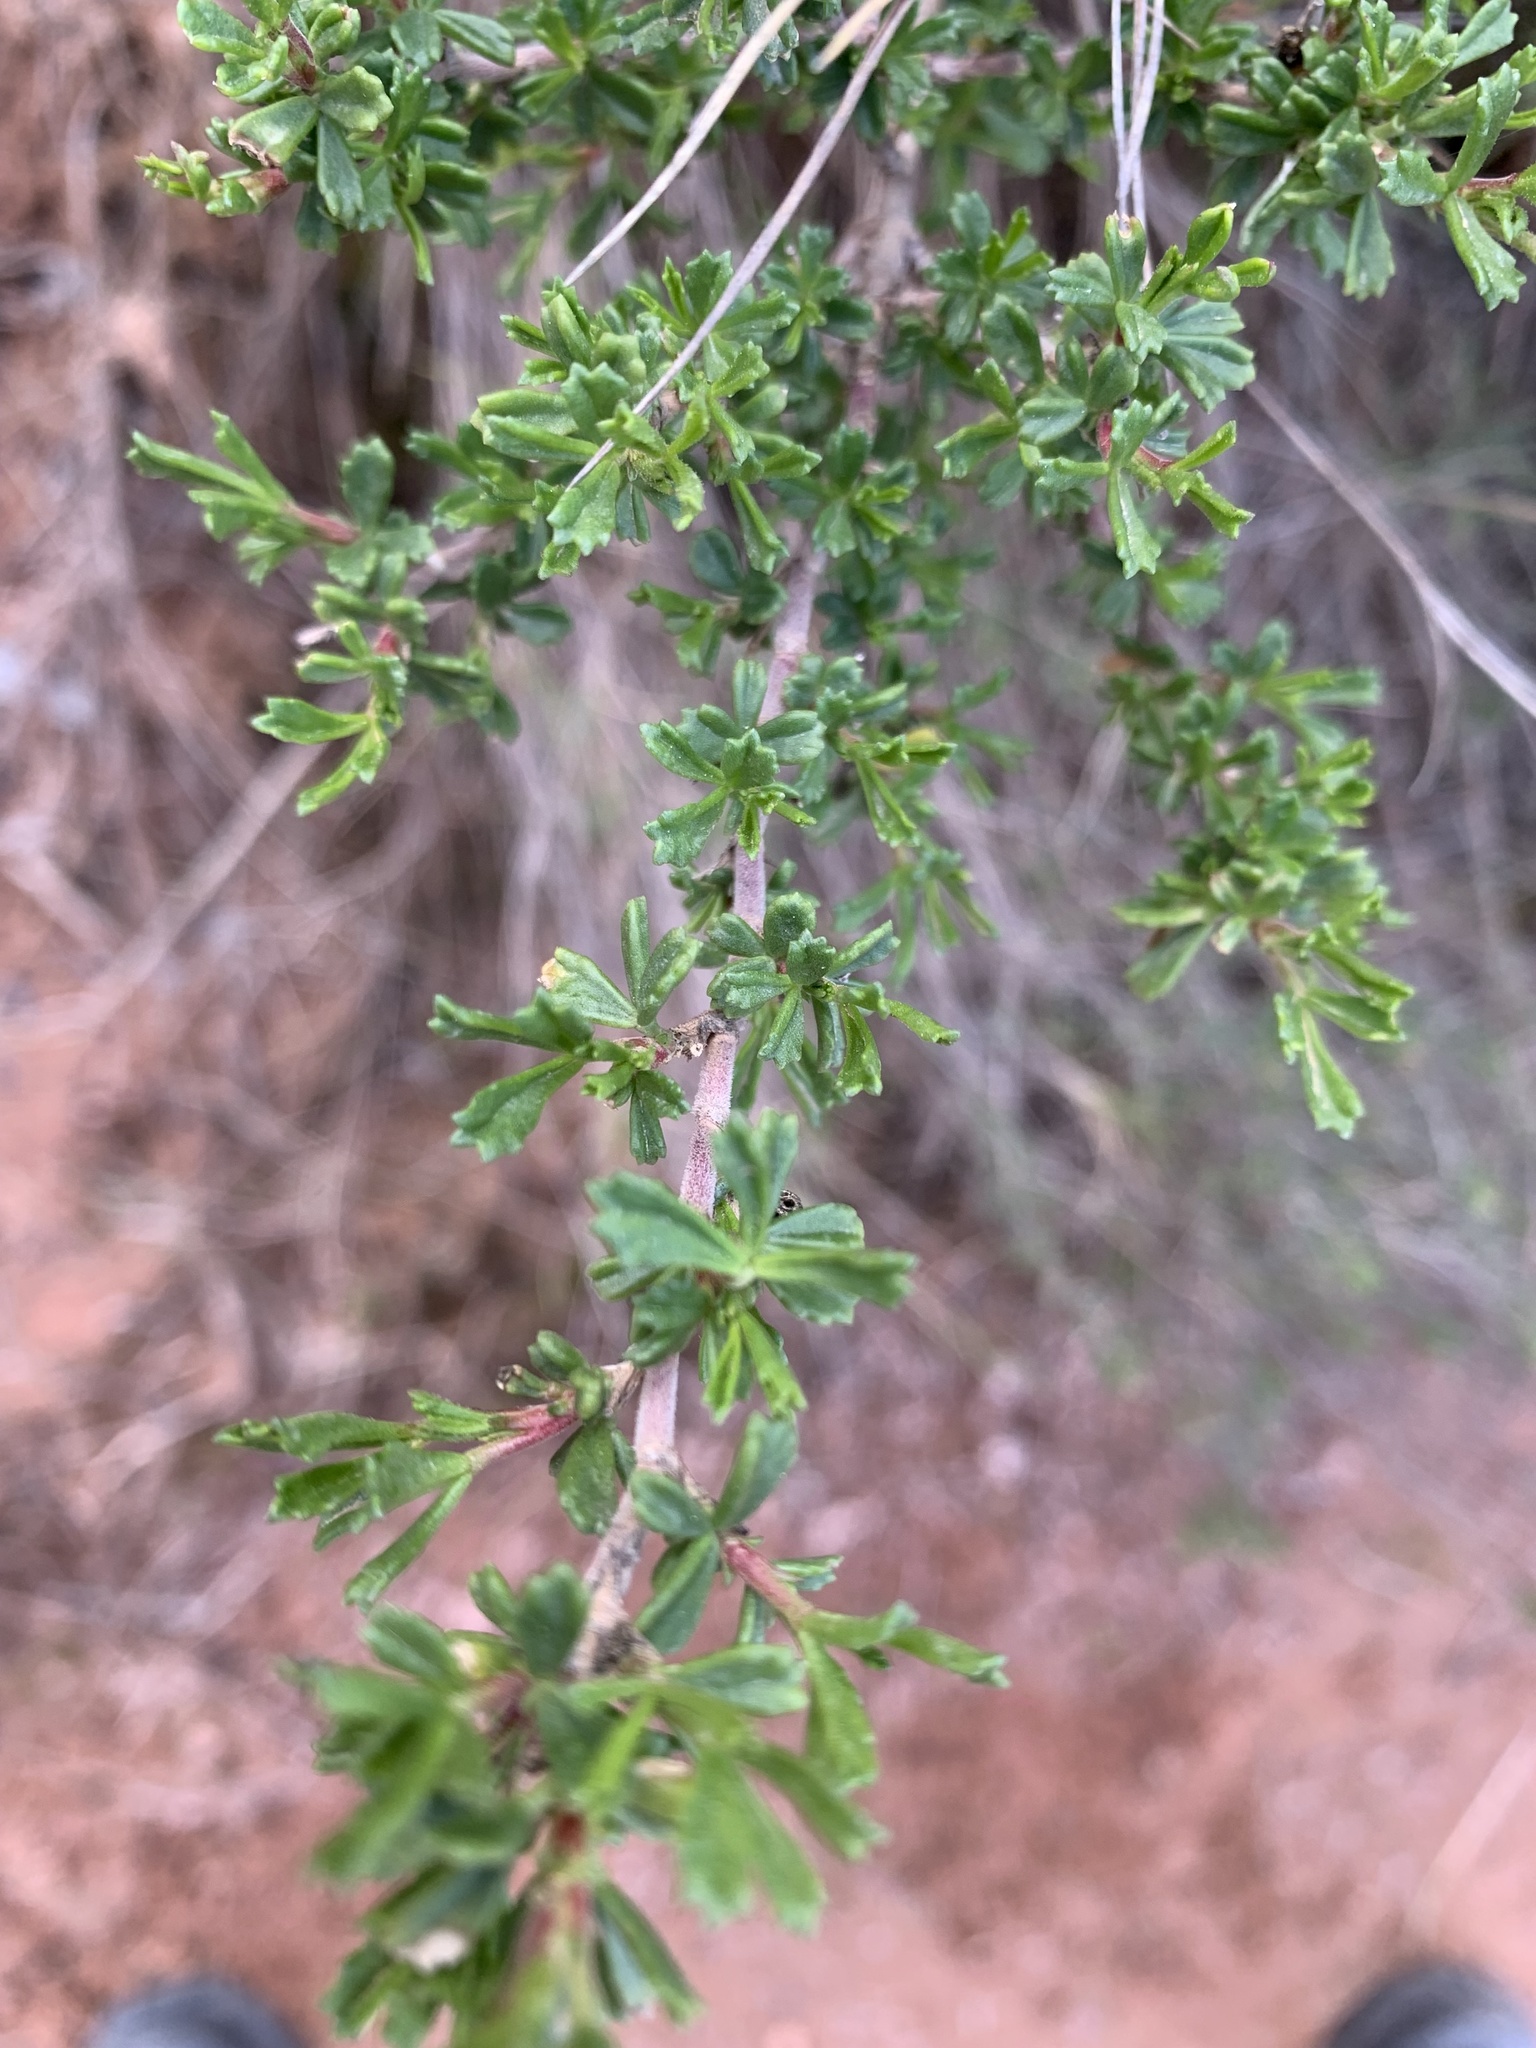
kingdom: Plantae
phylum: Tracheophyta
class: Magnoliopsida
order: Fabales
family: Fabaceae
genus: Ononis
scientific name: Ononis tridentata
